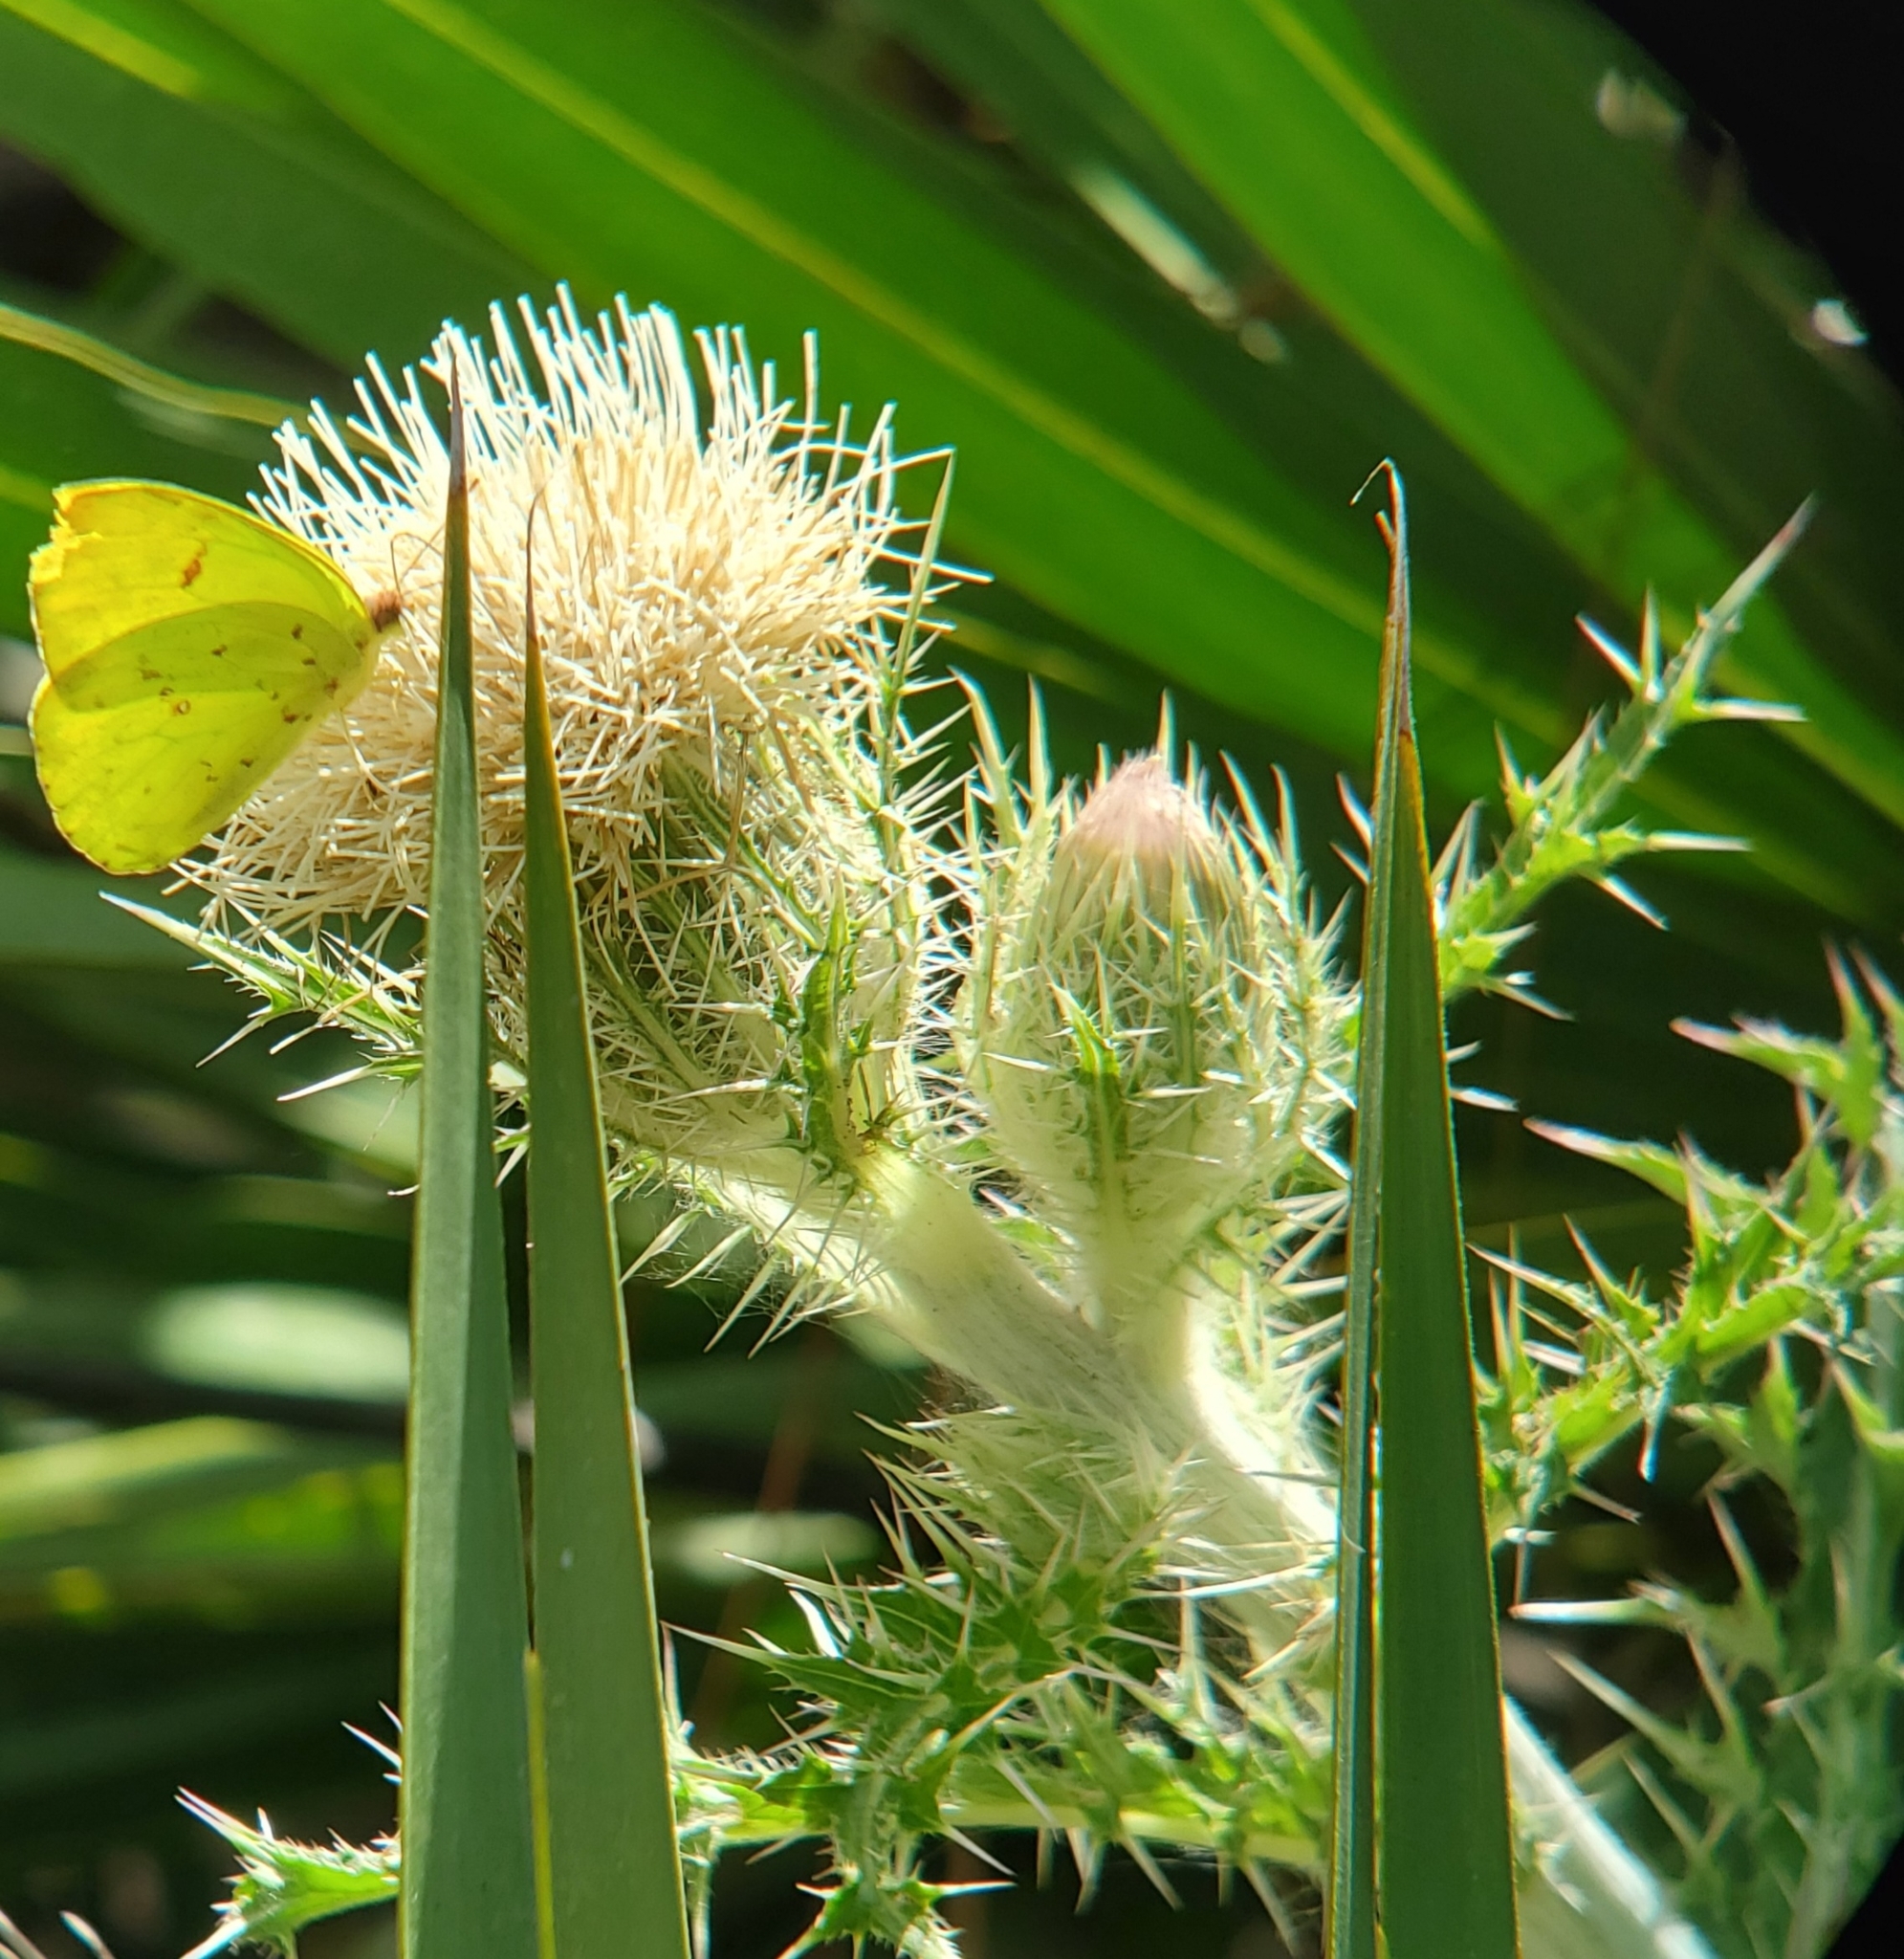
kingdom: Plantae
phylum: Tracheophyta
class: Magnoliopsida
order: Asterales
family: Asteraceae
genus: Cirsium
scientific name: Cirsium horridulum
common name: Bristly thistle
